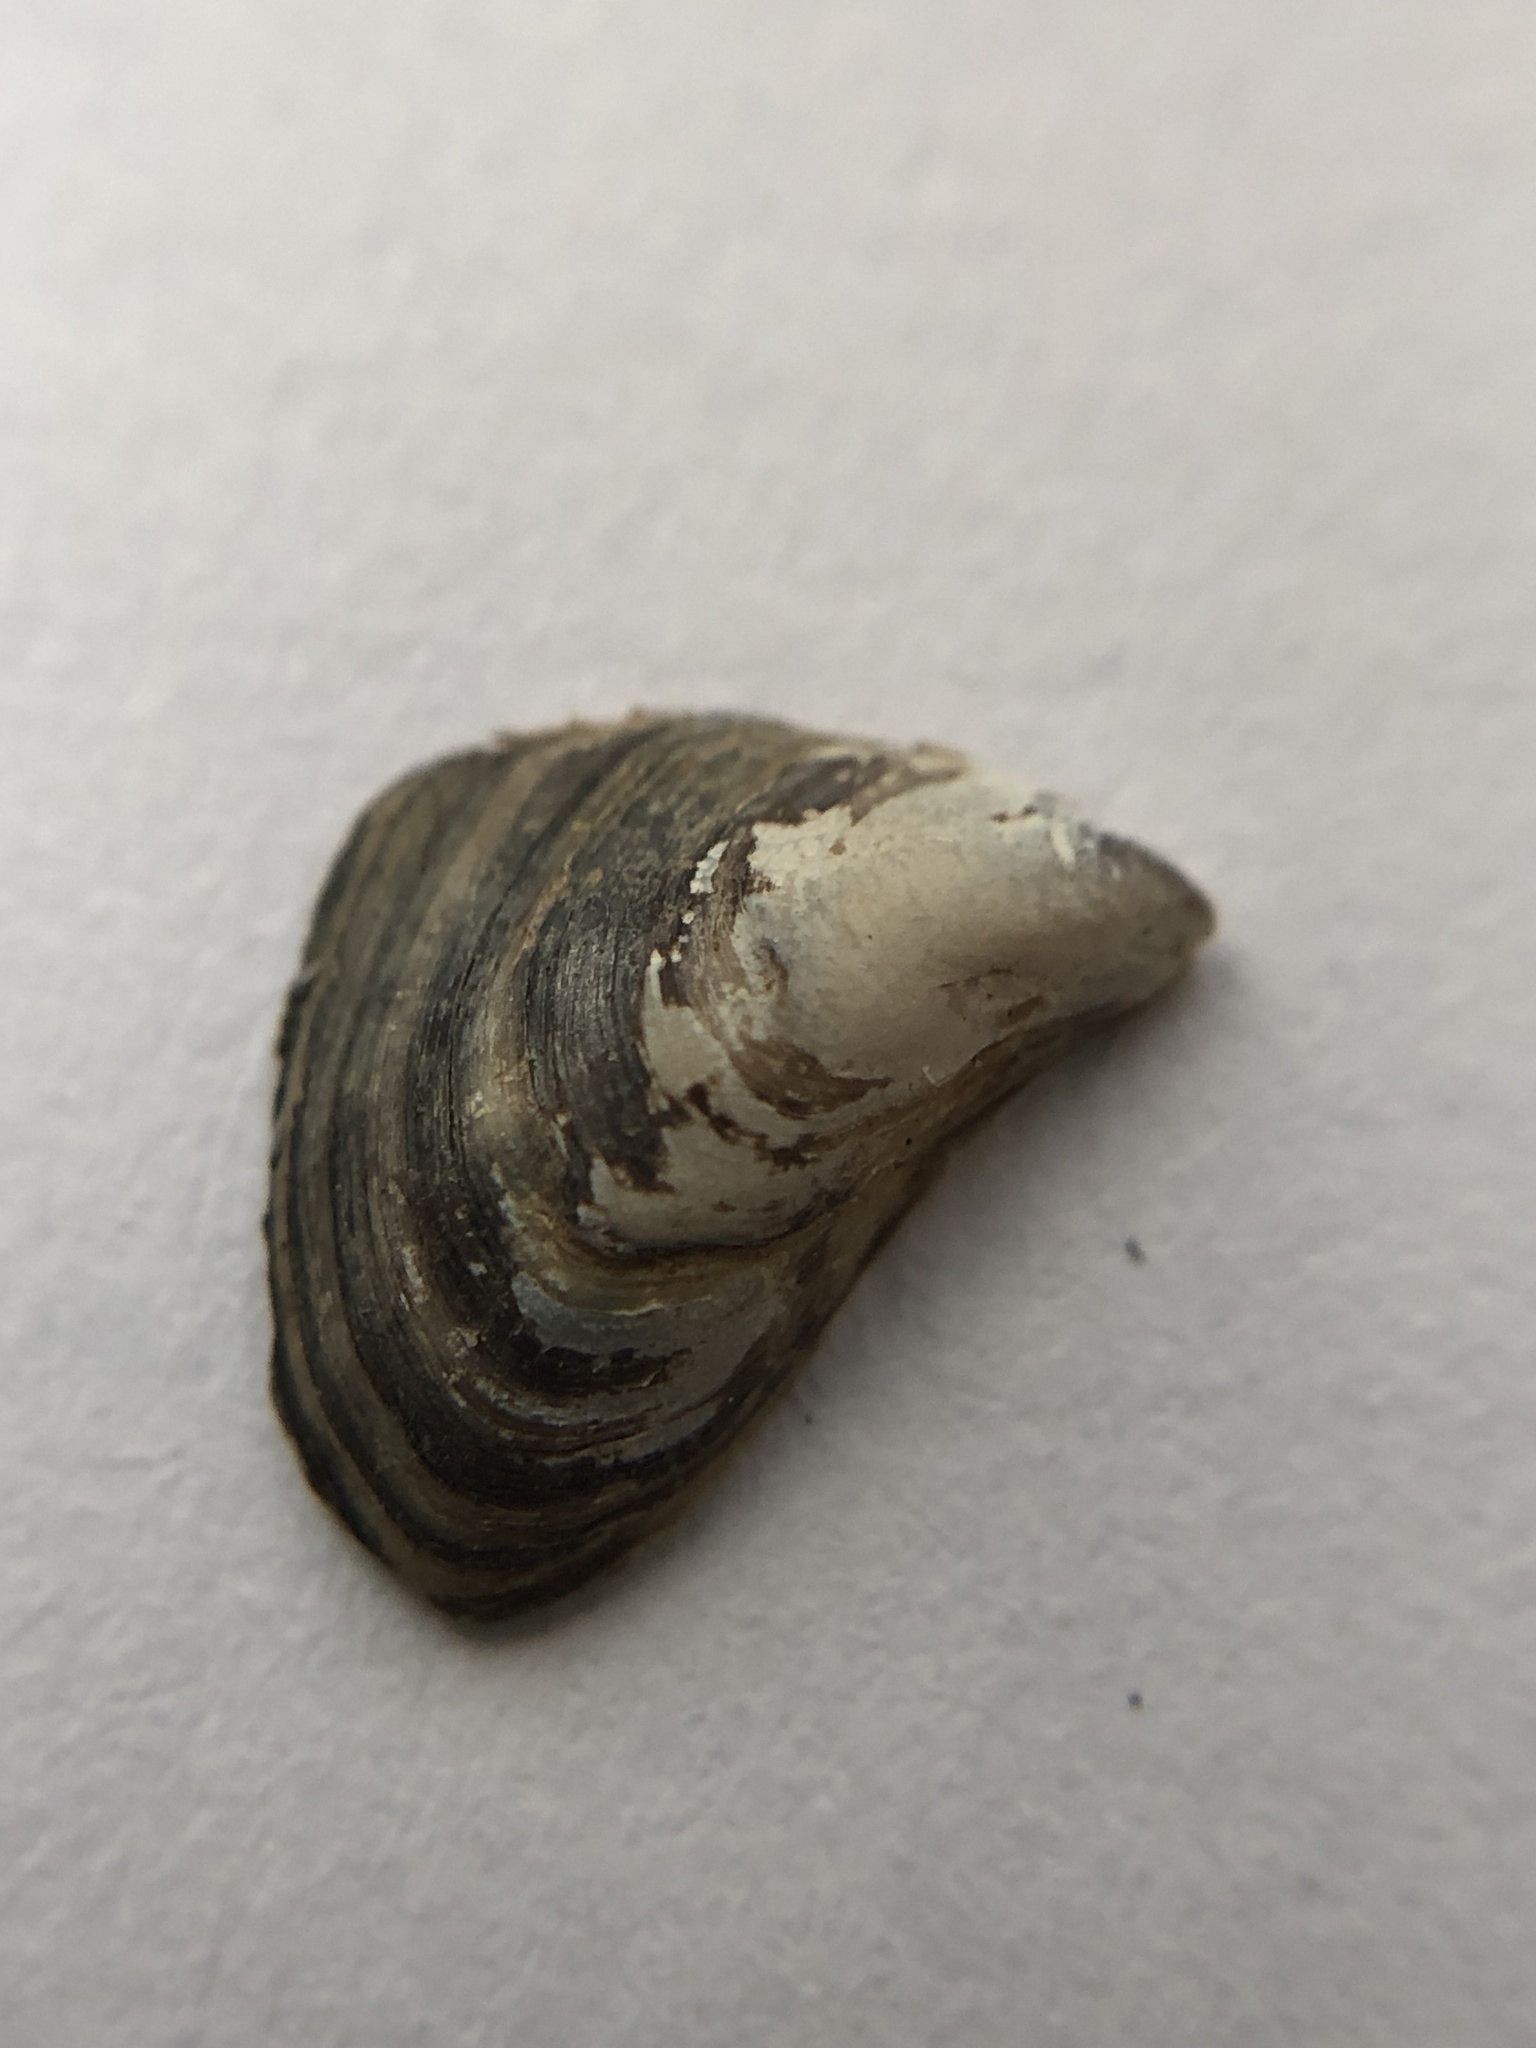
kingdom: Animalia
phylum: Mollusca
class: Bivalvia
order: Myida
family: Dreissenidae
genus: Dreissena
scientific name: Dreissena bugensis
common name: Quagga mussel
